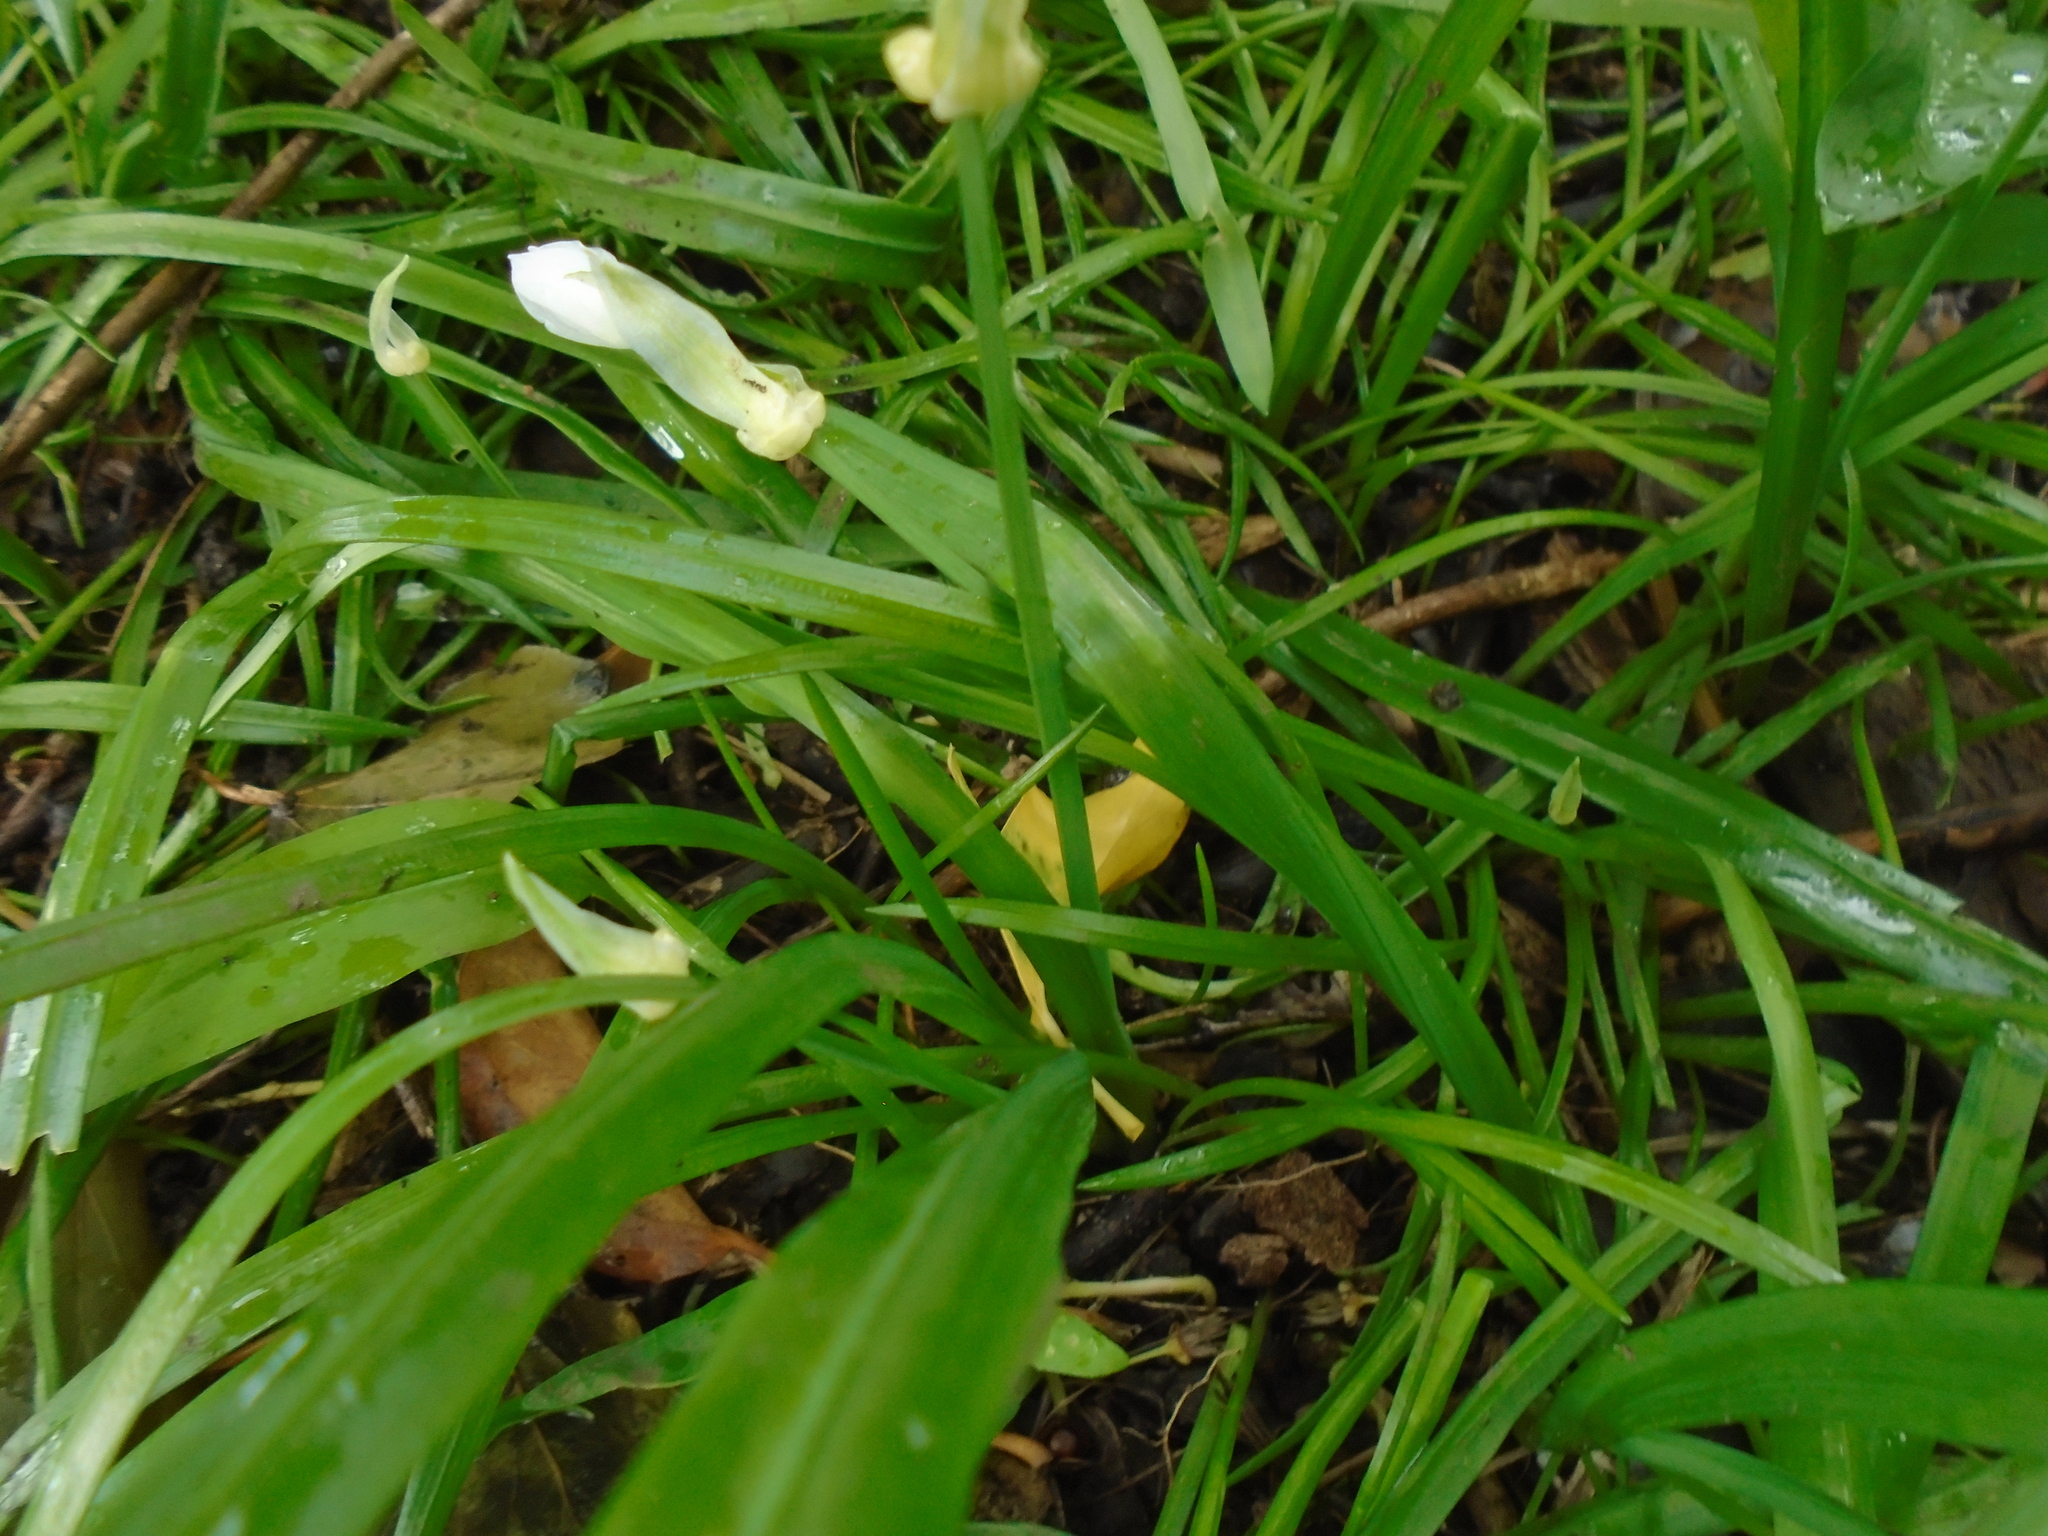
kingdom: Plantae
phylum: Tracheophyta
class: Liliopsida
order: Asparagales
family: Amaryllidaceae
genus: Allium
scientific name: Allium paradoxum
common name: Few-flowered garlic
